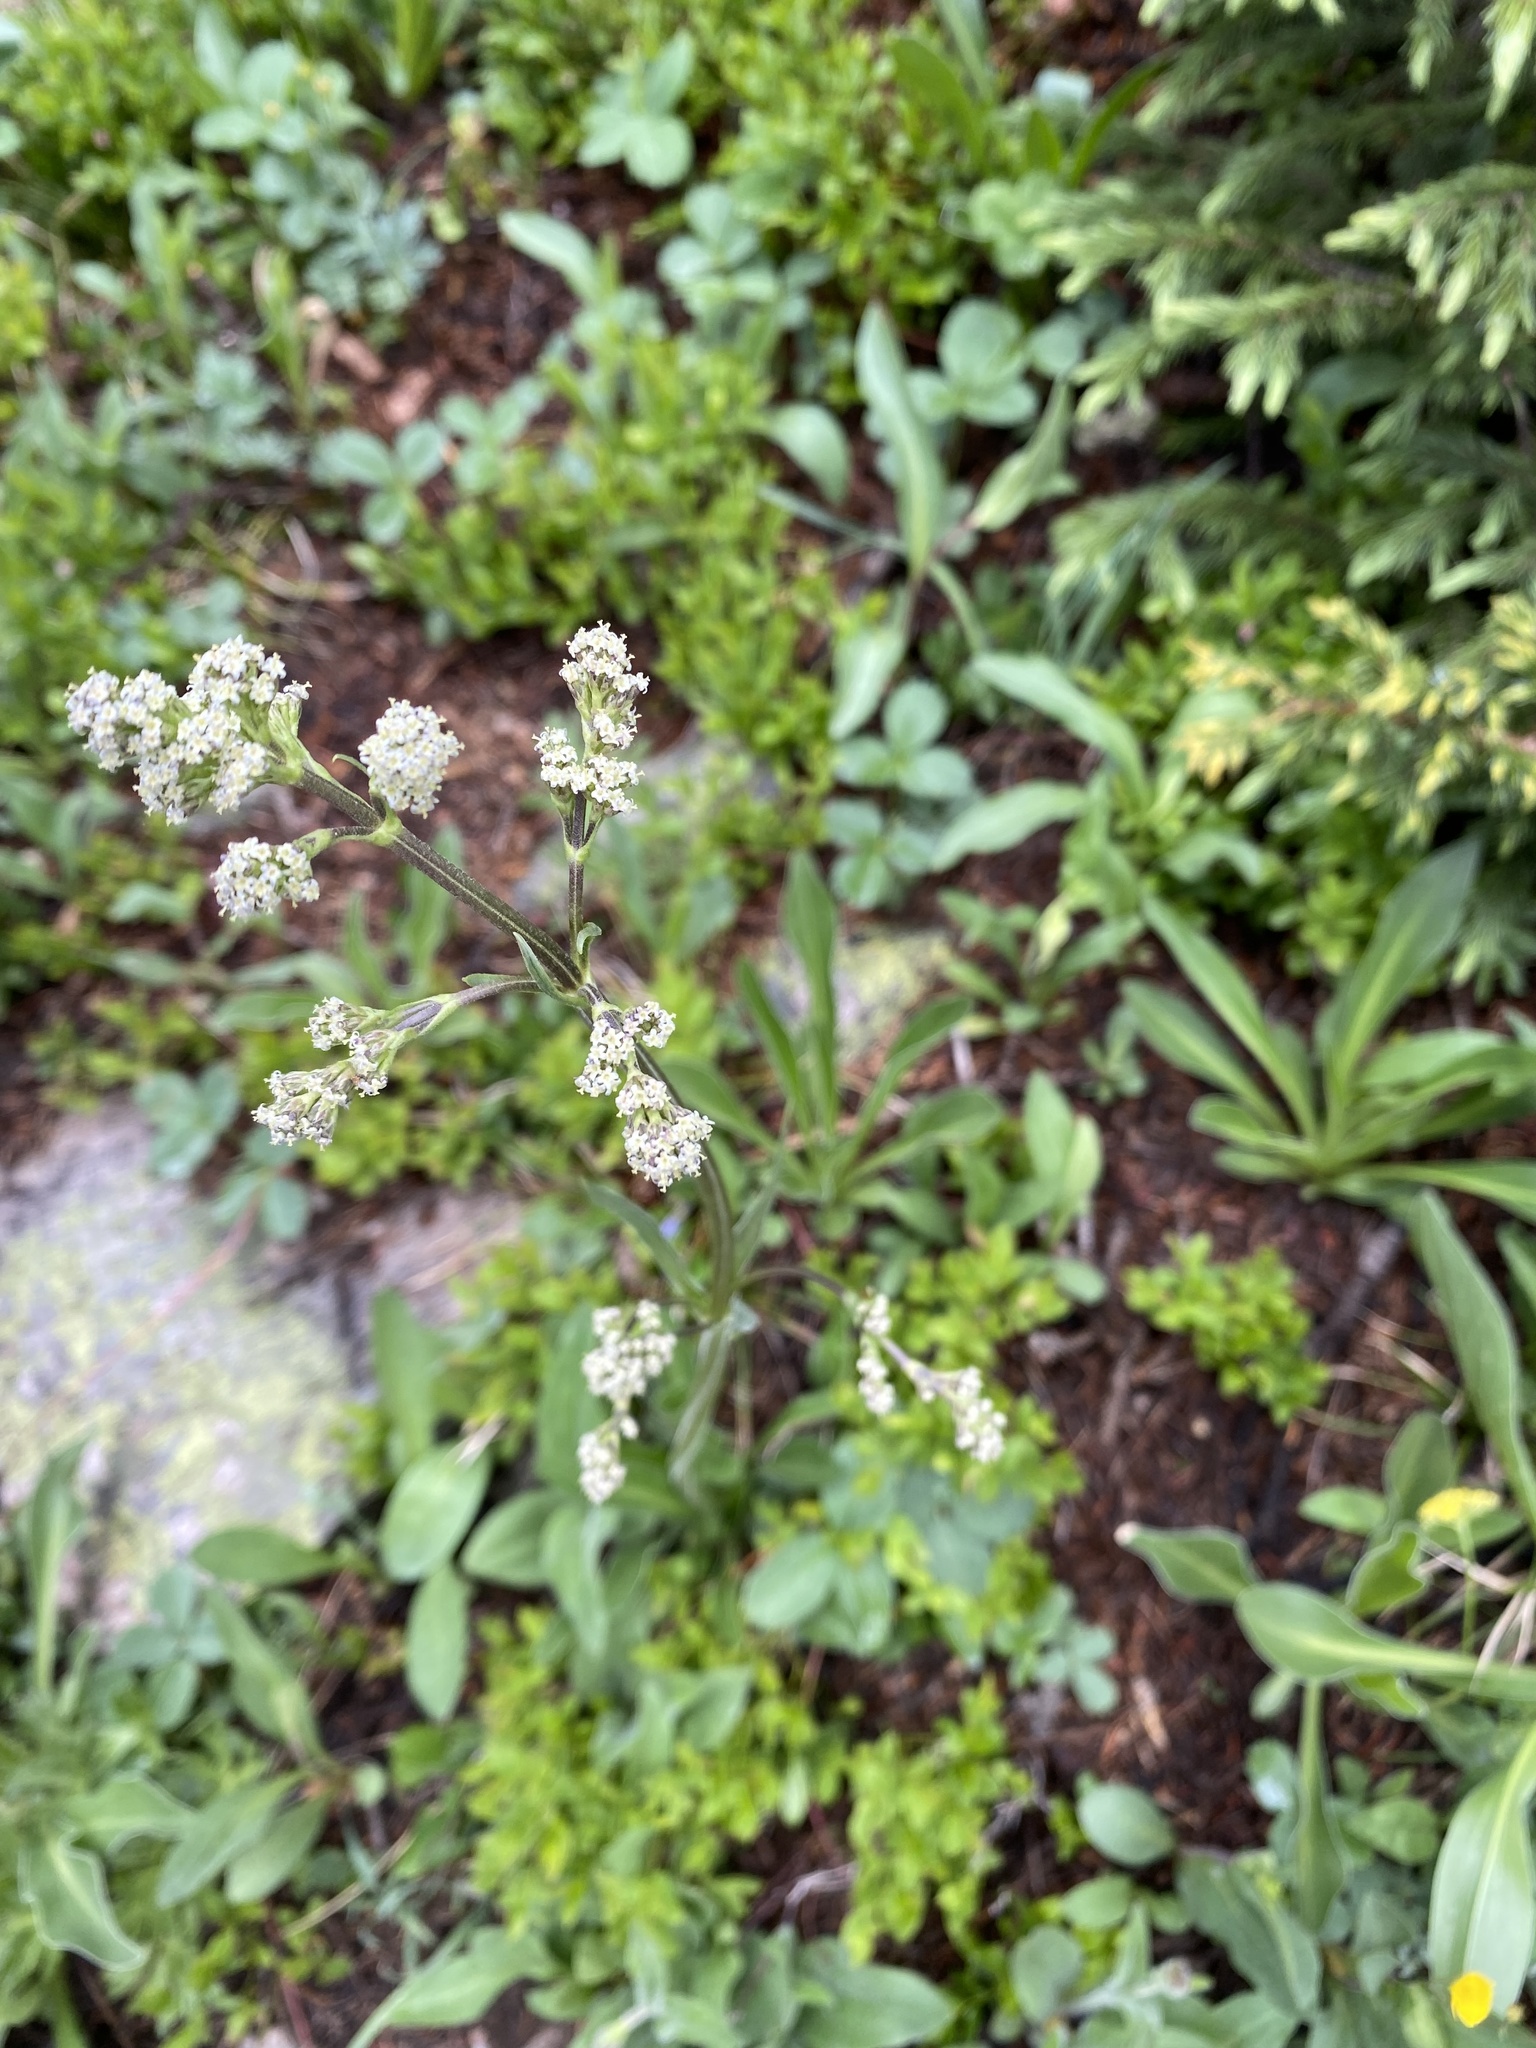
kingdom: Plantae
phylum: Tracheophyta
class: Magnoliopsida
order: Dipsacales
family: Caprifoliaceae
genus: Valeriana
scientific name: Valeriana edulis
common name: Taproot valerian
